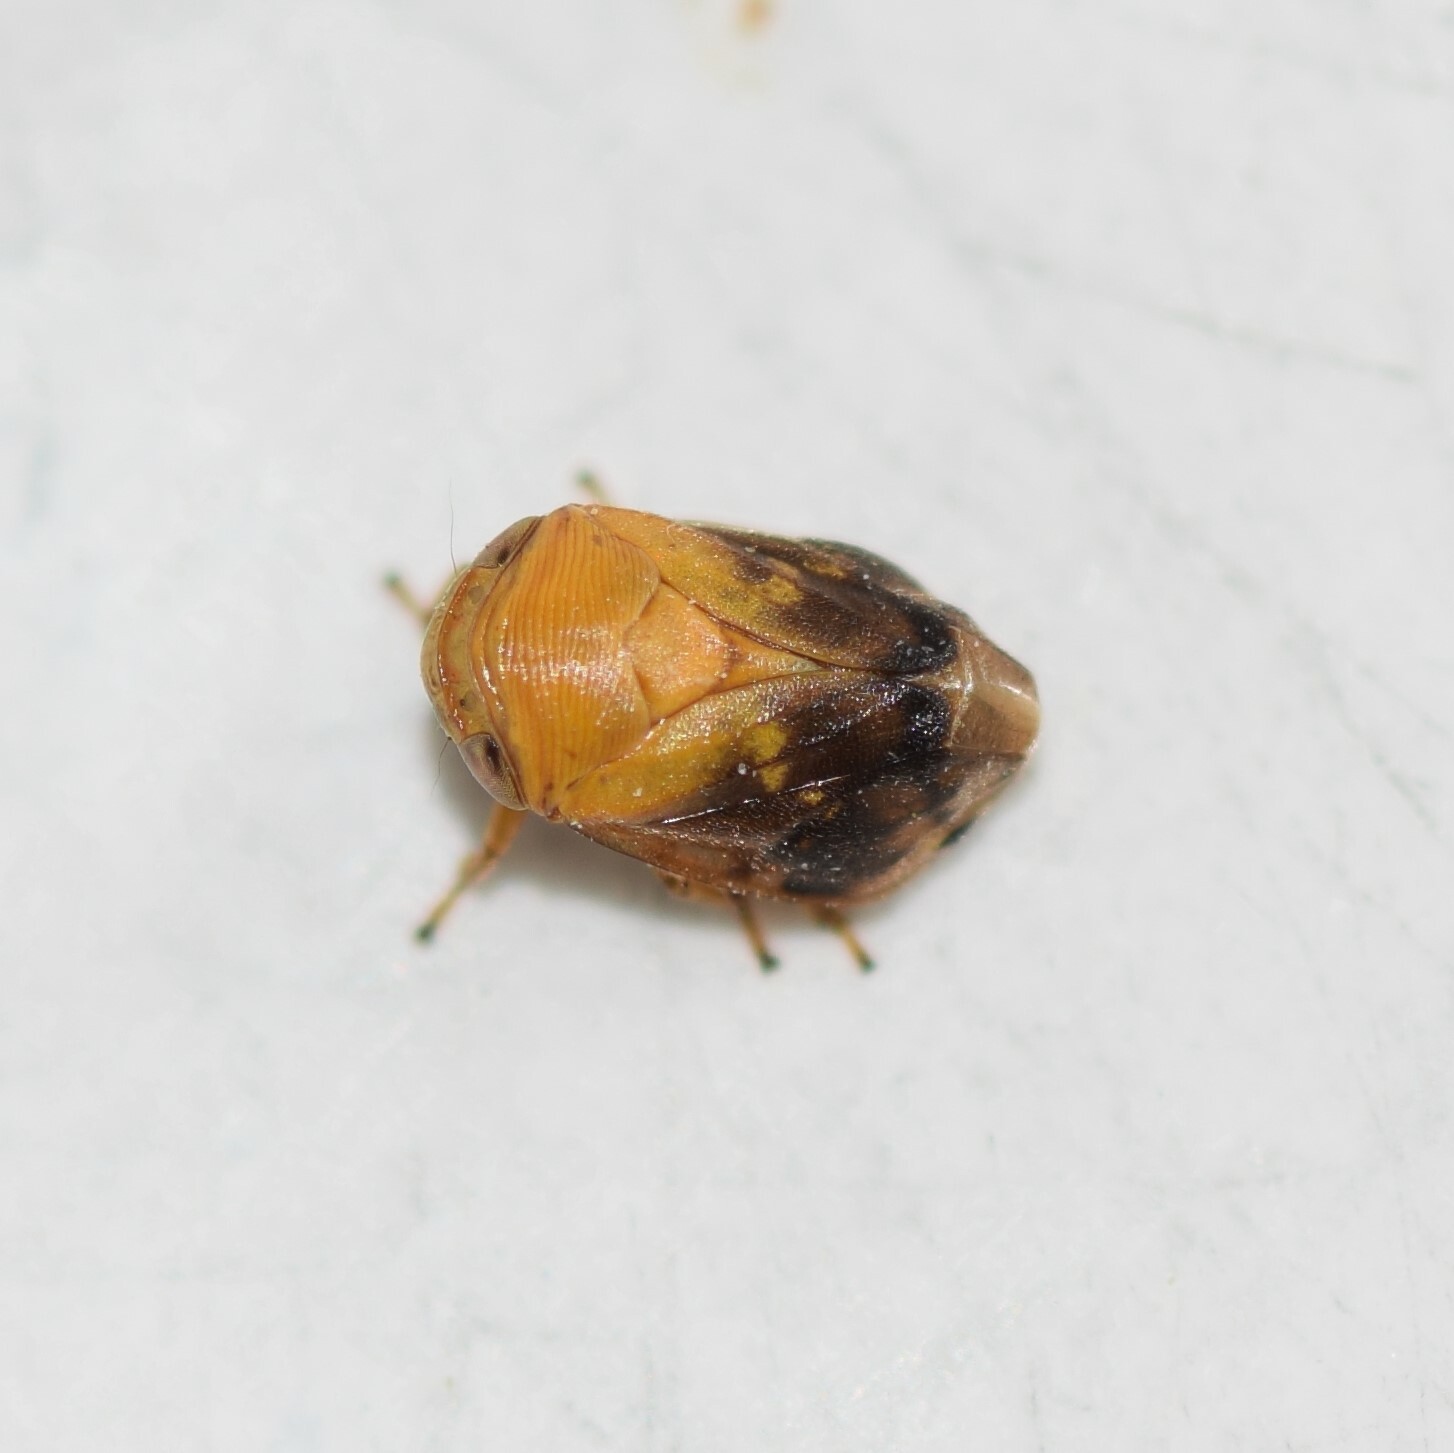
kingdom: Animalia
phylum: Arthropoda
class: Insecta
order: Hemiptera
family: Clastopteridae
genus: Clastoptera
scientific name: Clastoptera achatina
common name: Pecan spittlebug
